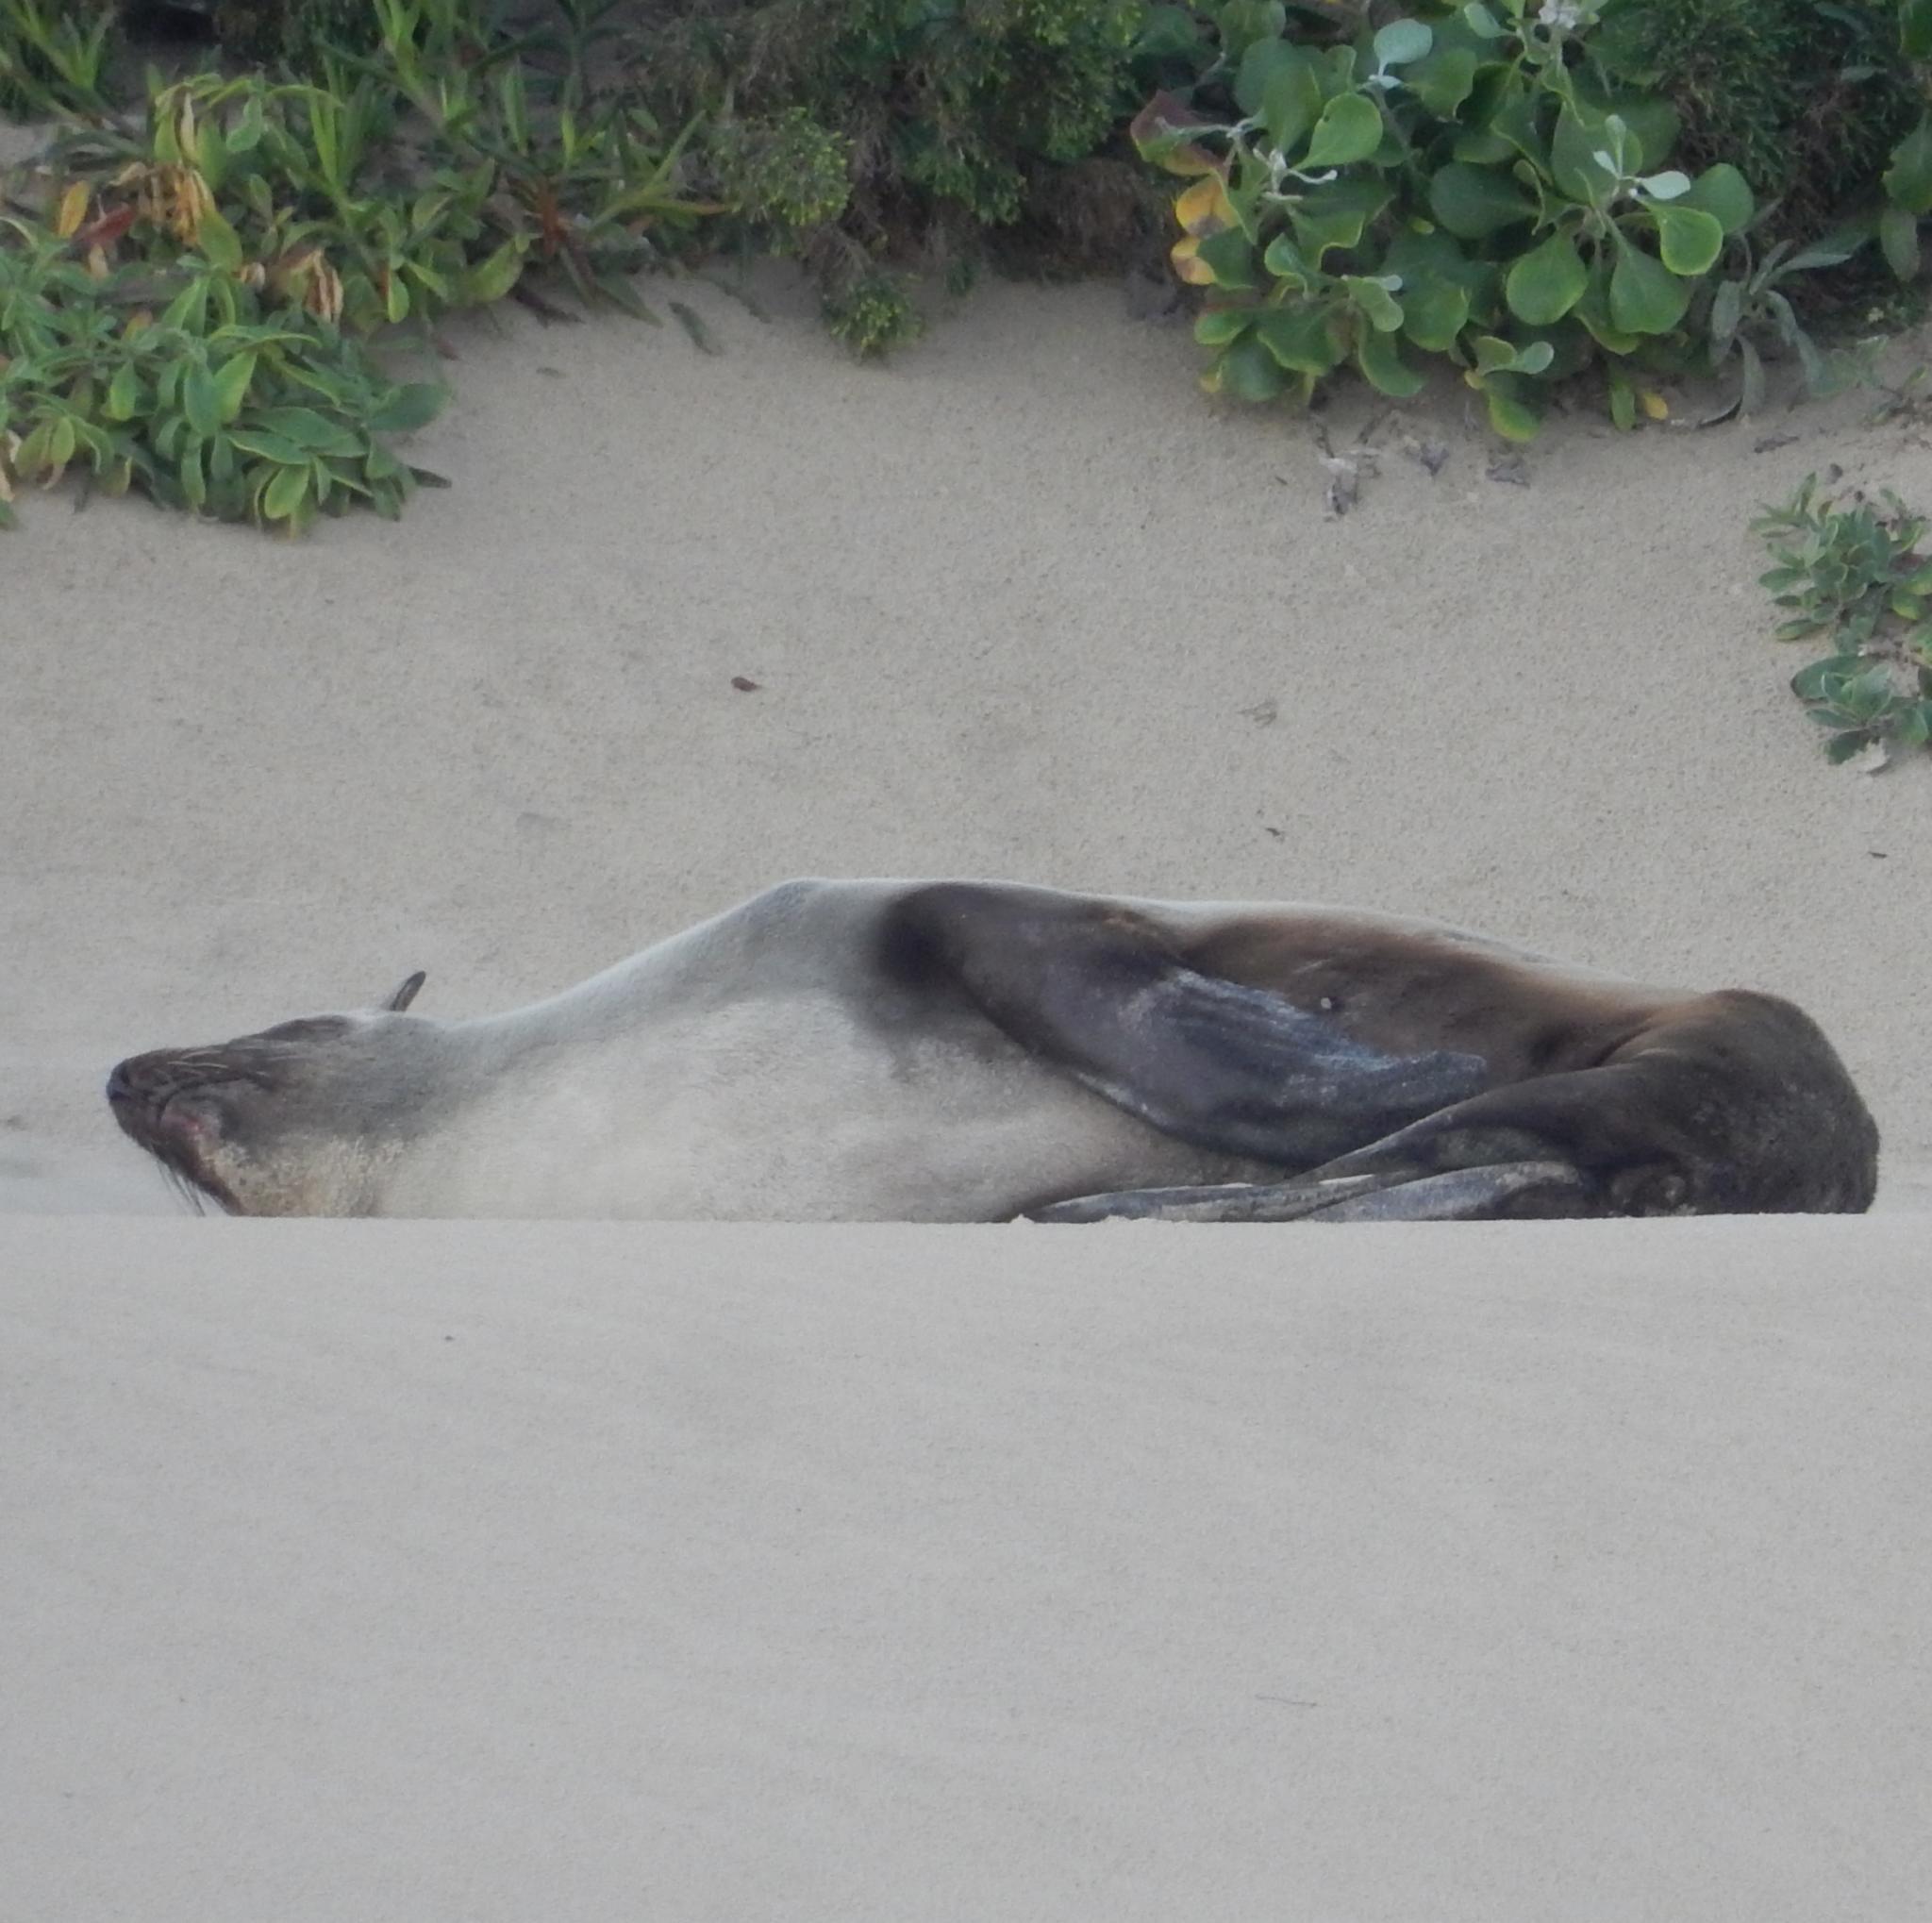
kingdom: Animalia
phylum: Chordata
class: Mammalia
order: Carnivora
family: Otariidae
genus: Arctocephalus
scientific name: Arctocephalus pusillus
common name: Brown fur seal
